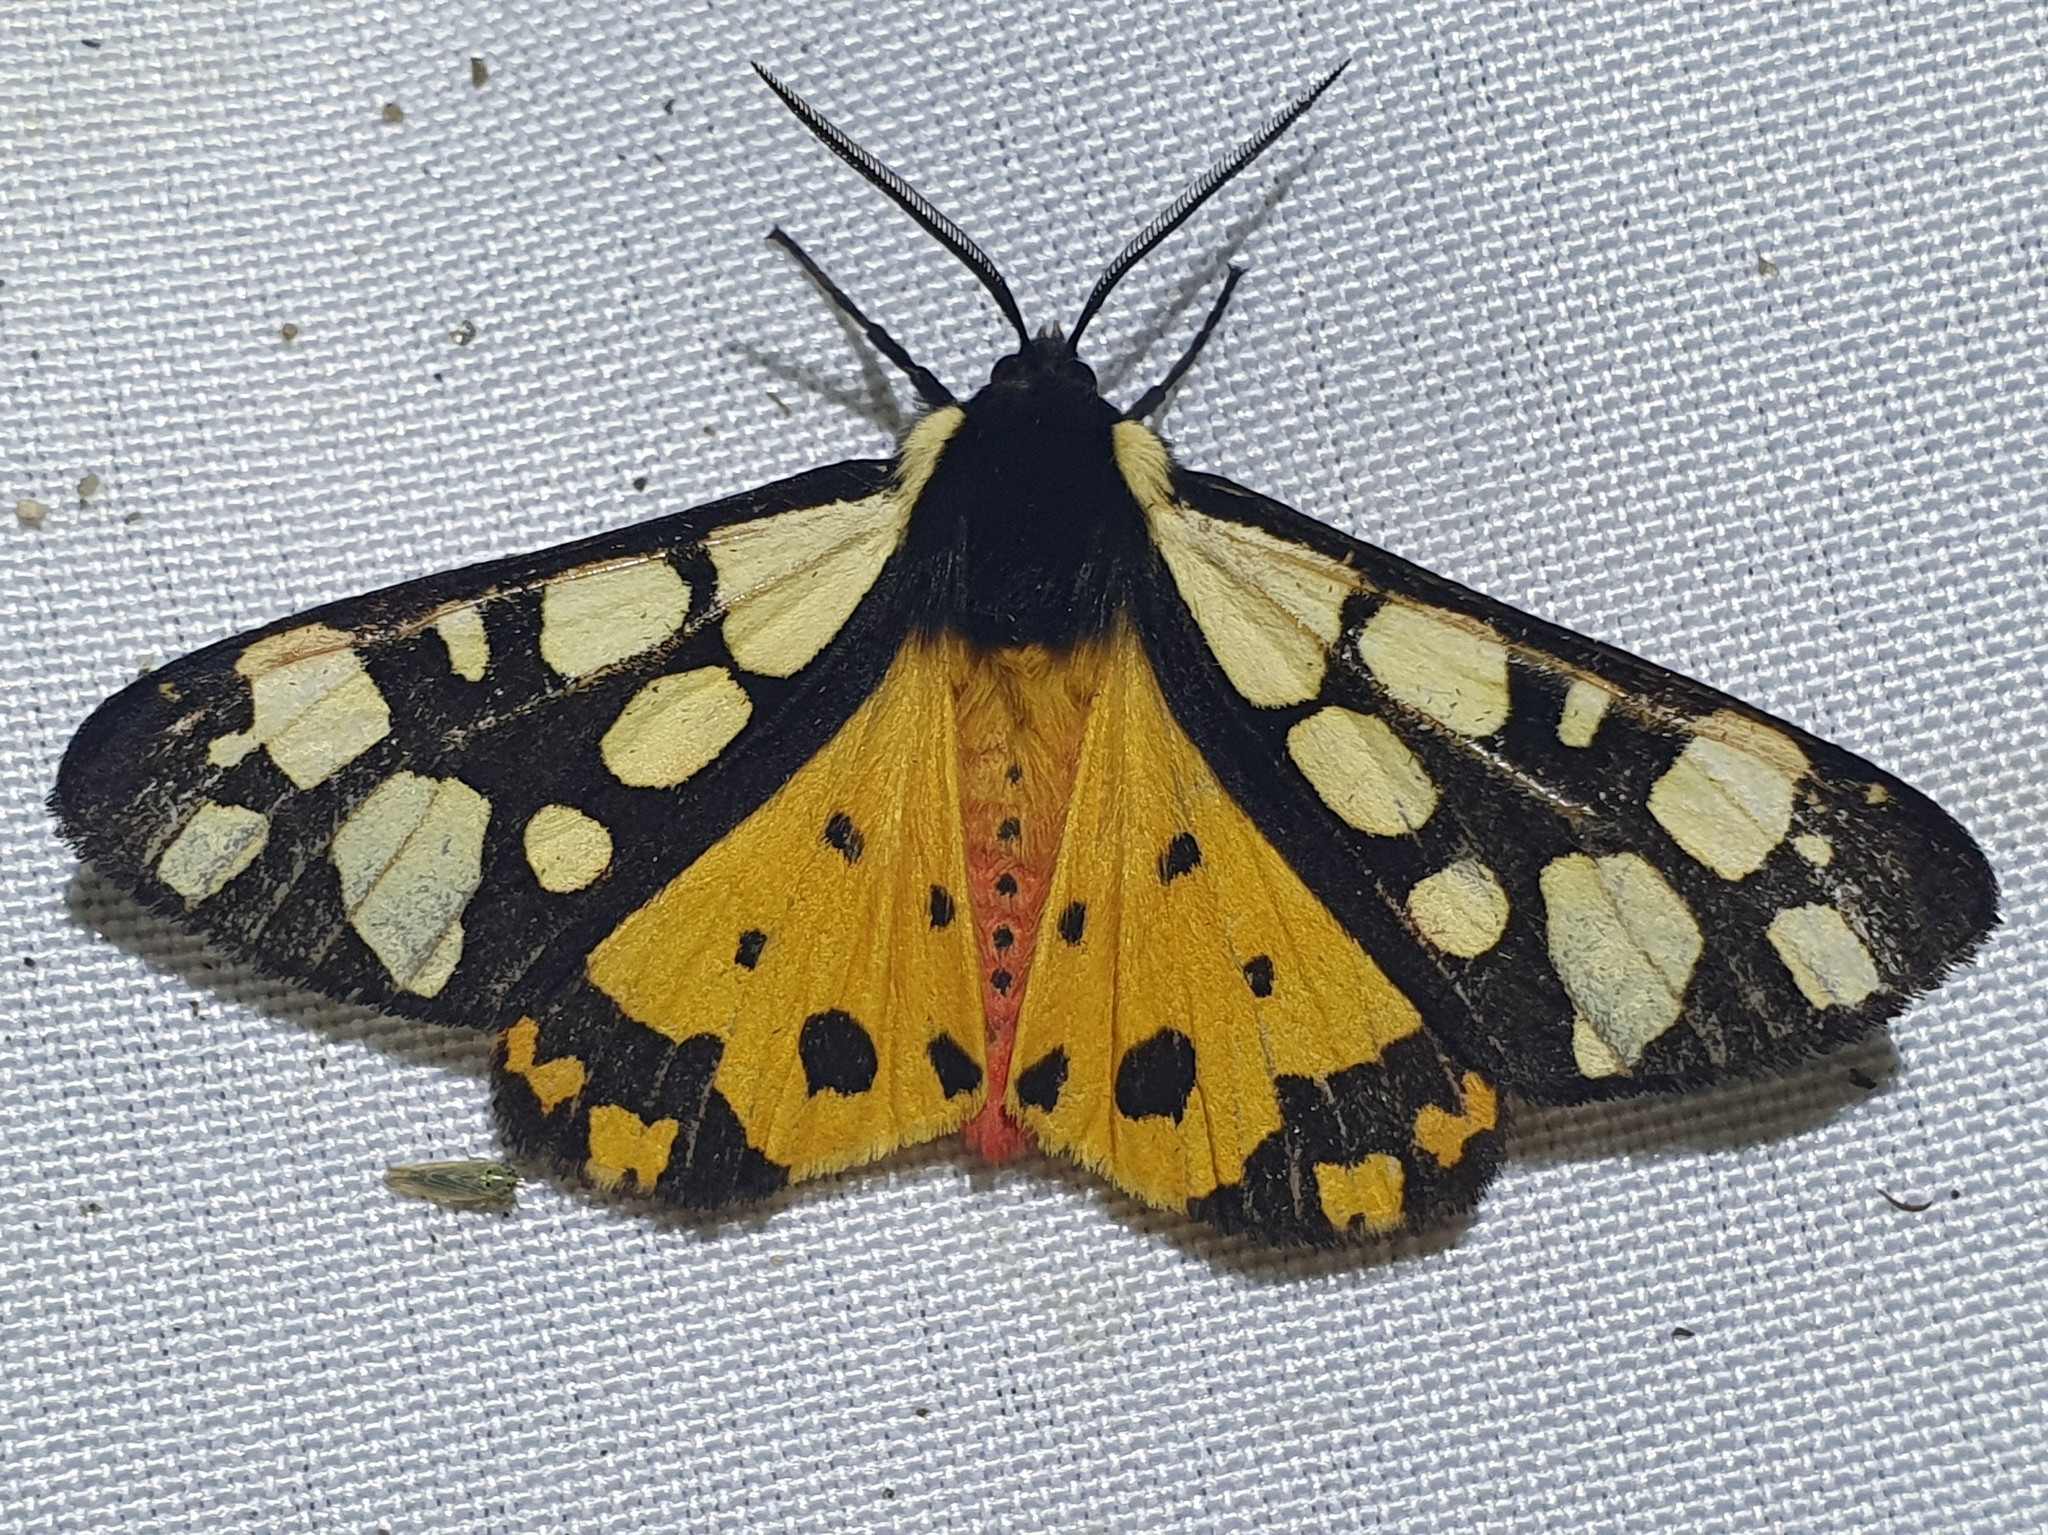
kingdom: Animalia
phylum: Arthropoda
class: Insecta
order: Lepidoptera
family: Erebidae
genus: Epicallia
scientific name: Epicallia villica
